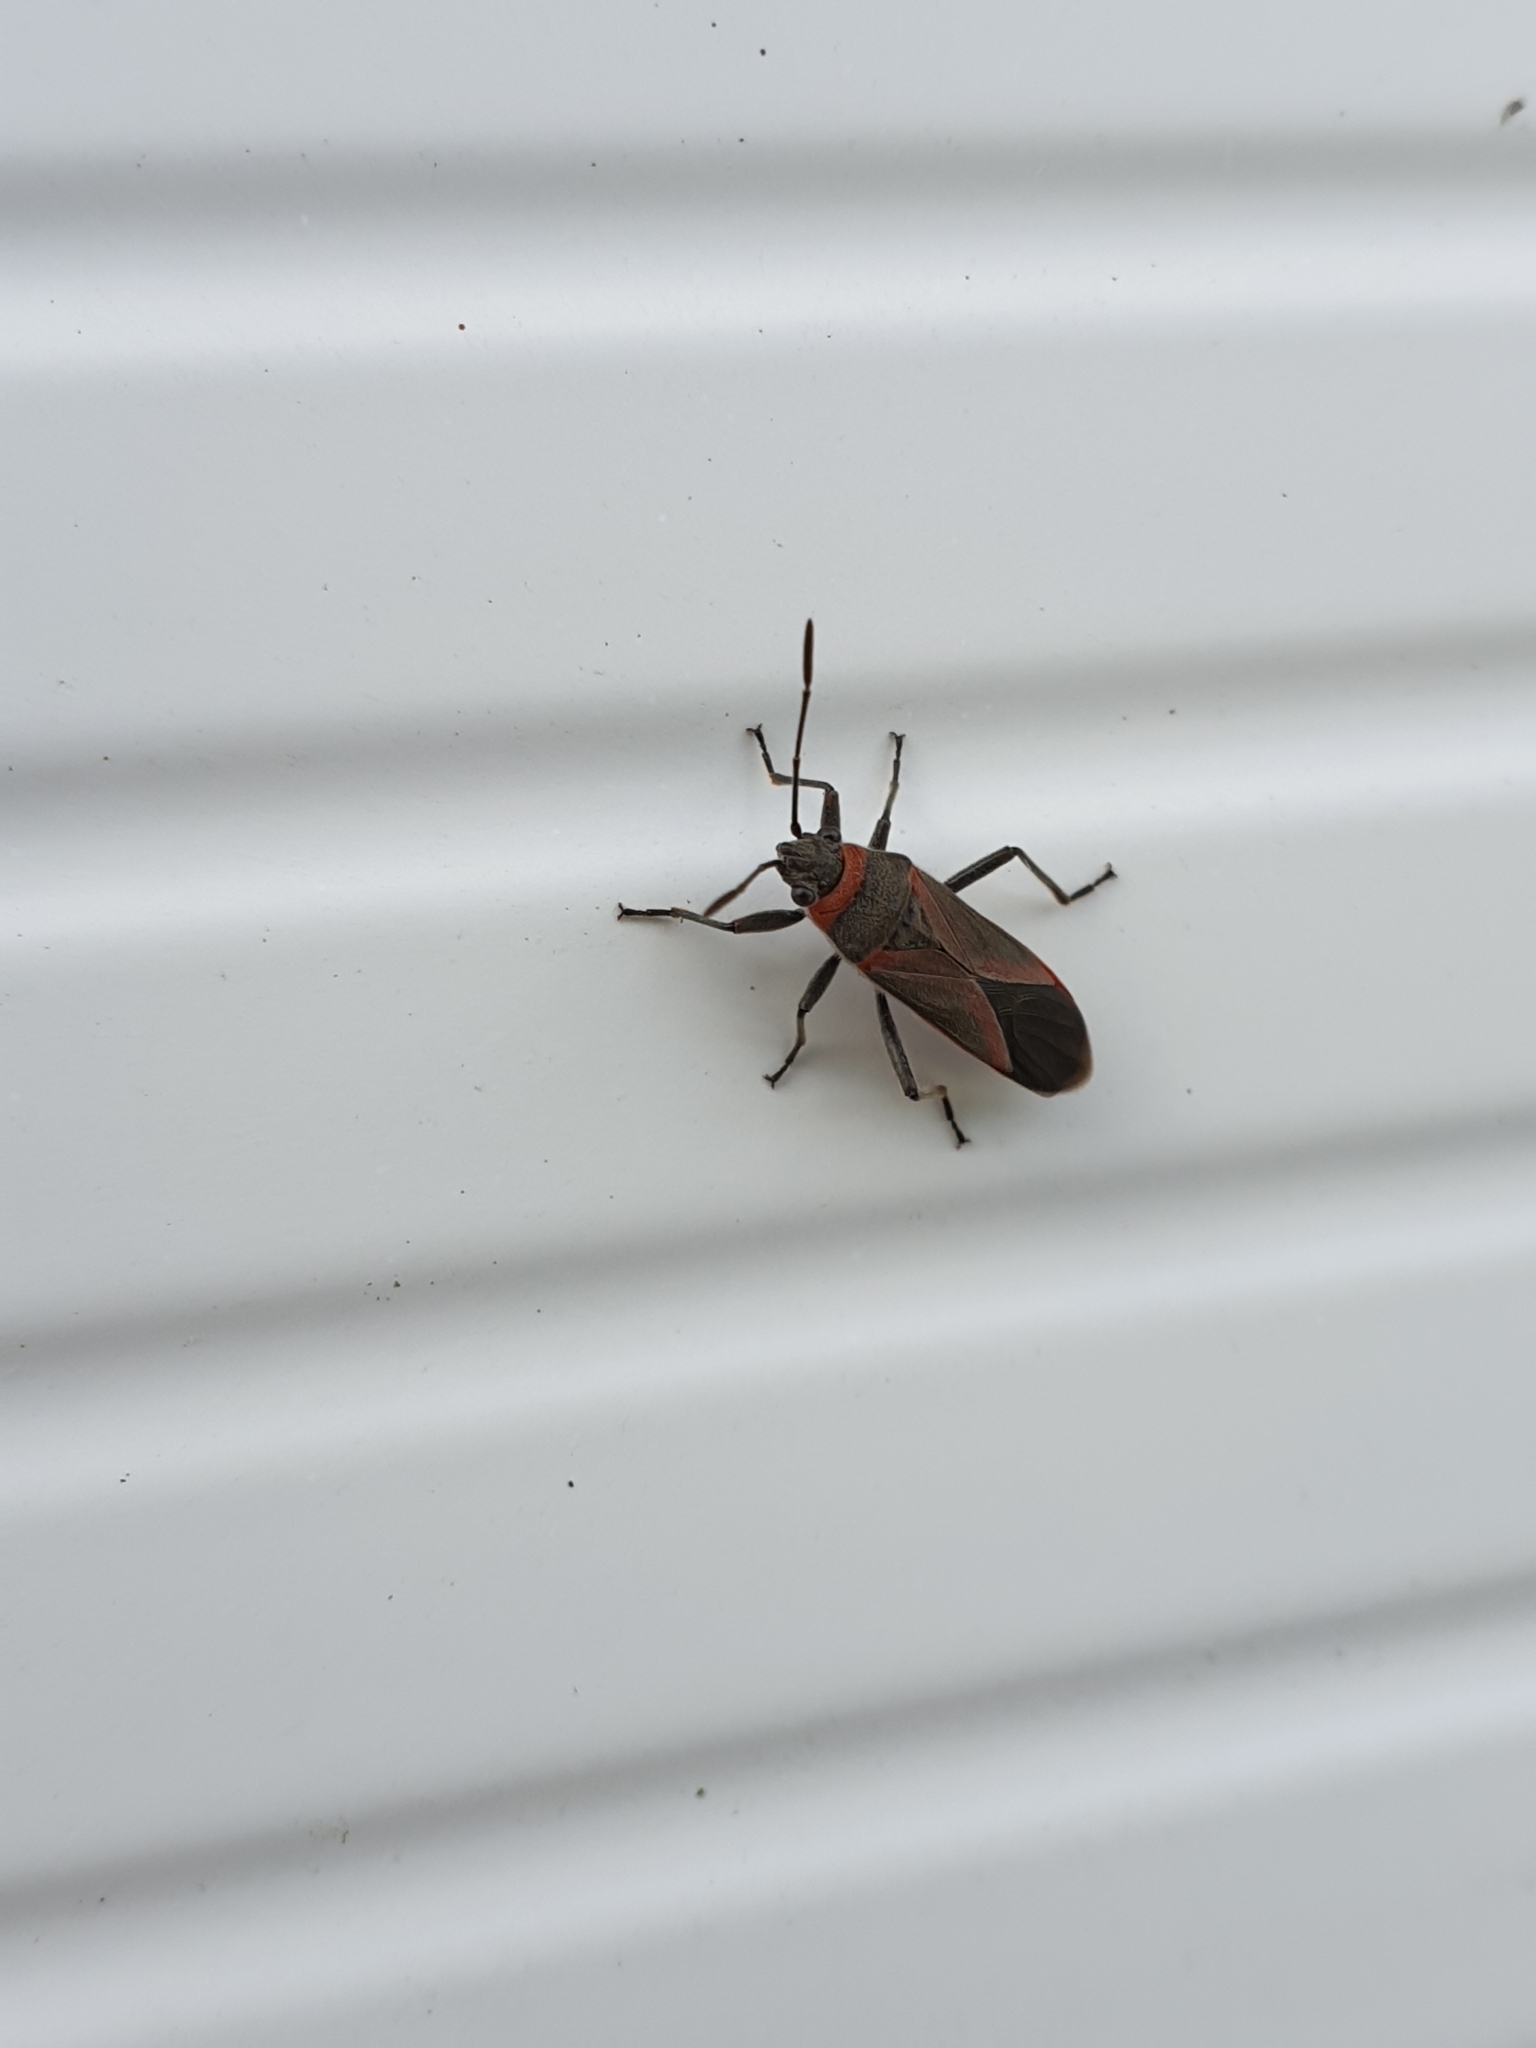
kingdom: Animalia
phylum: Arthropoda
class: Insecta
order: Hemiptera
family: Lygaeidae
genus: Arocatus
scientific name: Arocatus rusticus
